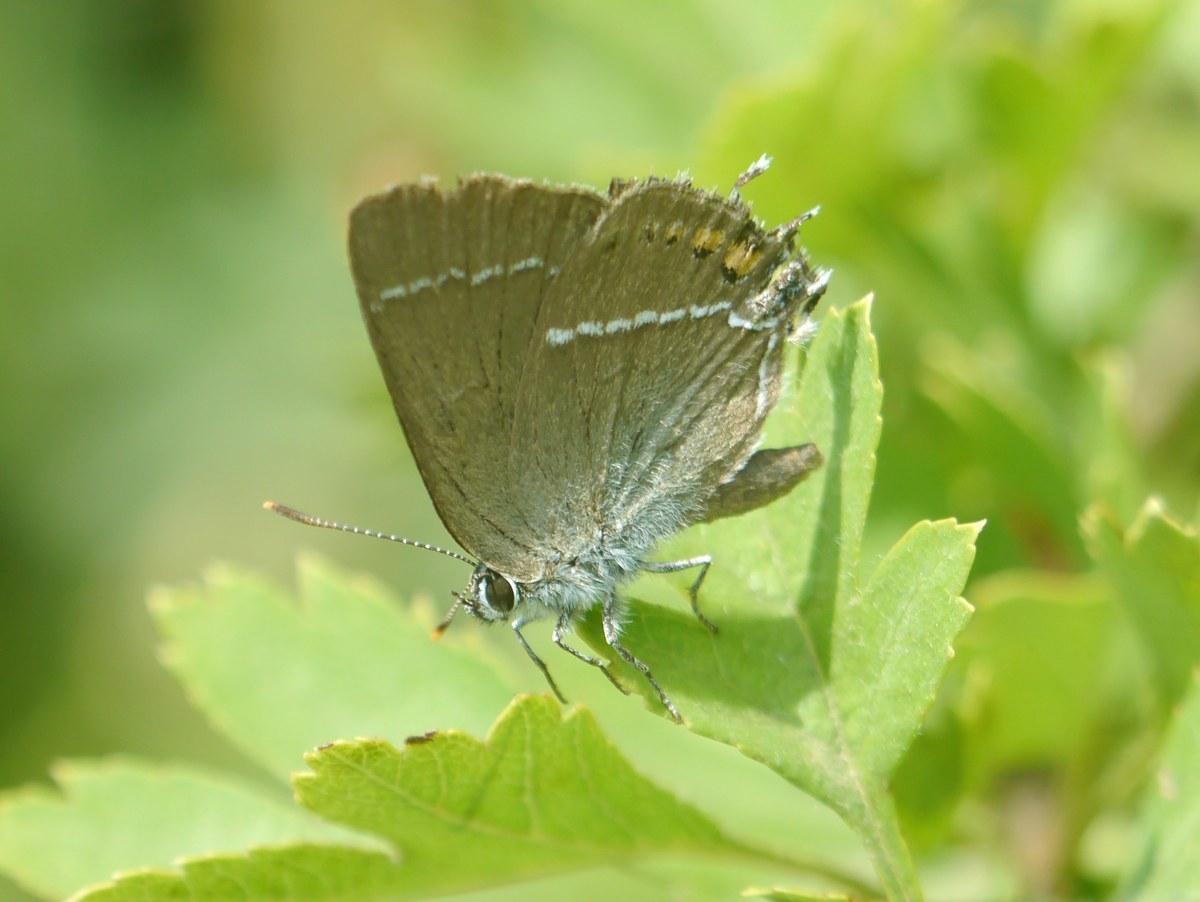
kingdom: Animalia
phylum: Arthropoda
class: Insecta
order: Lepidoptera
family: Lycaenidae
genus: Tuttiola
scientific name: Tuttiola spini
